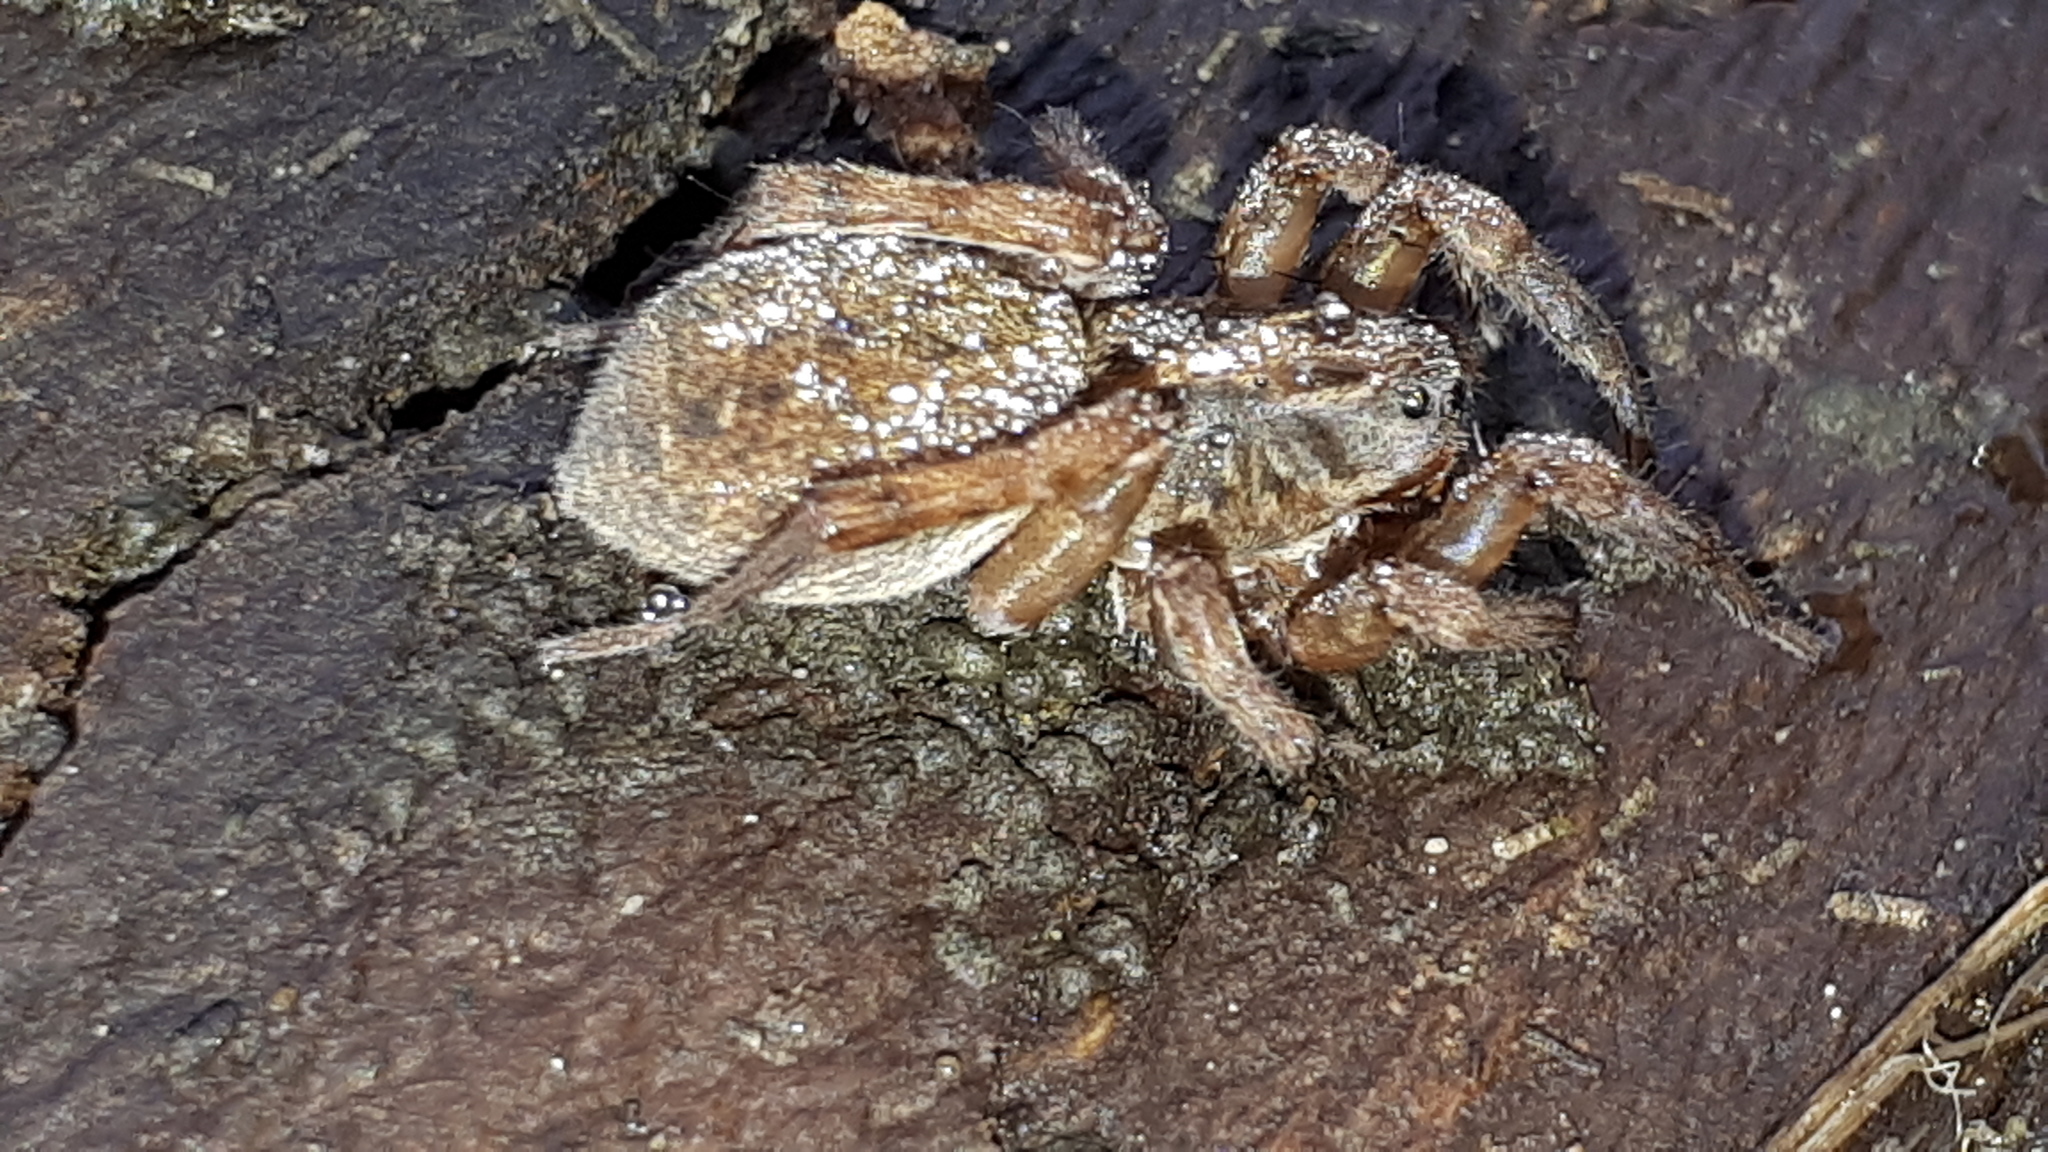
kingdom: Animalia
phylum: Arthropoda
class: Arachnida
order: Araneae
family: Lycosidae
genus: Trochosa
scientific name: Trochosa
